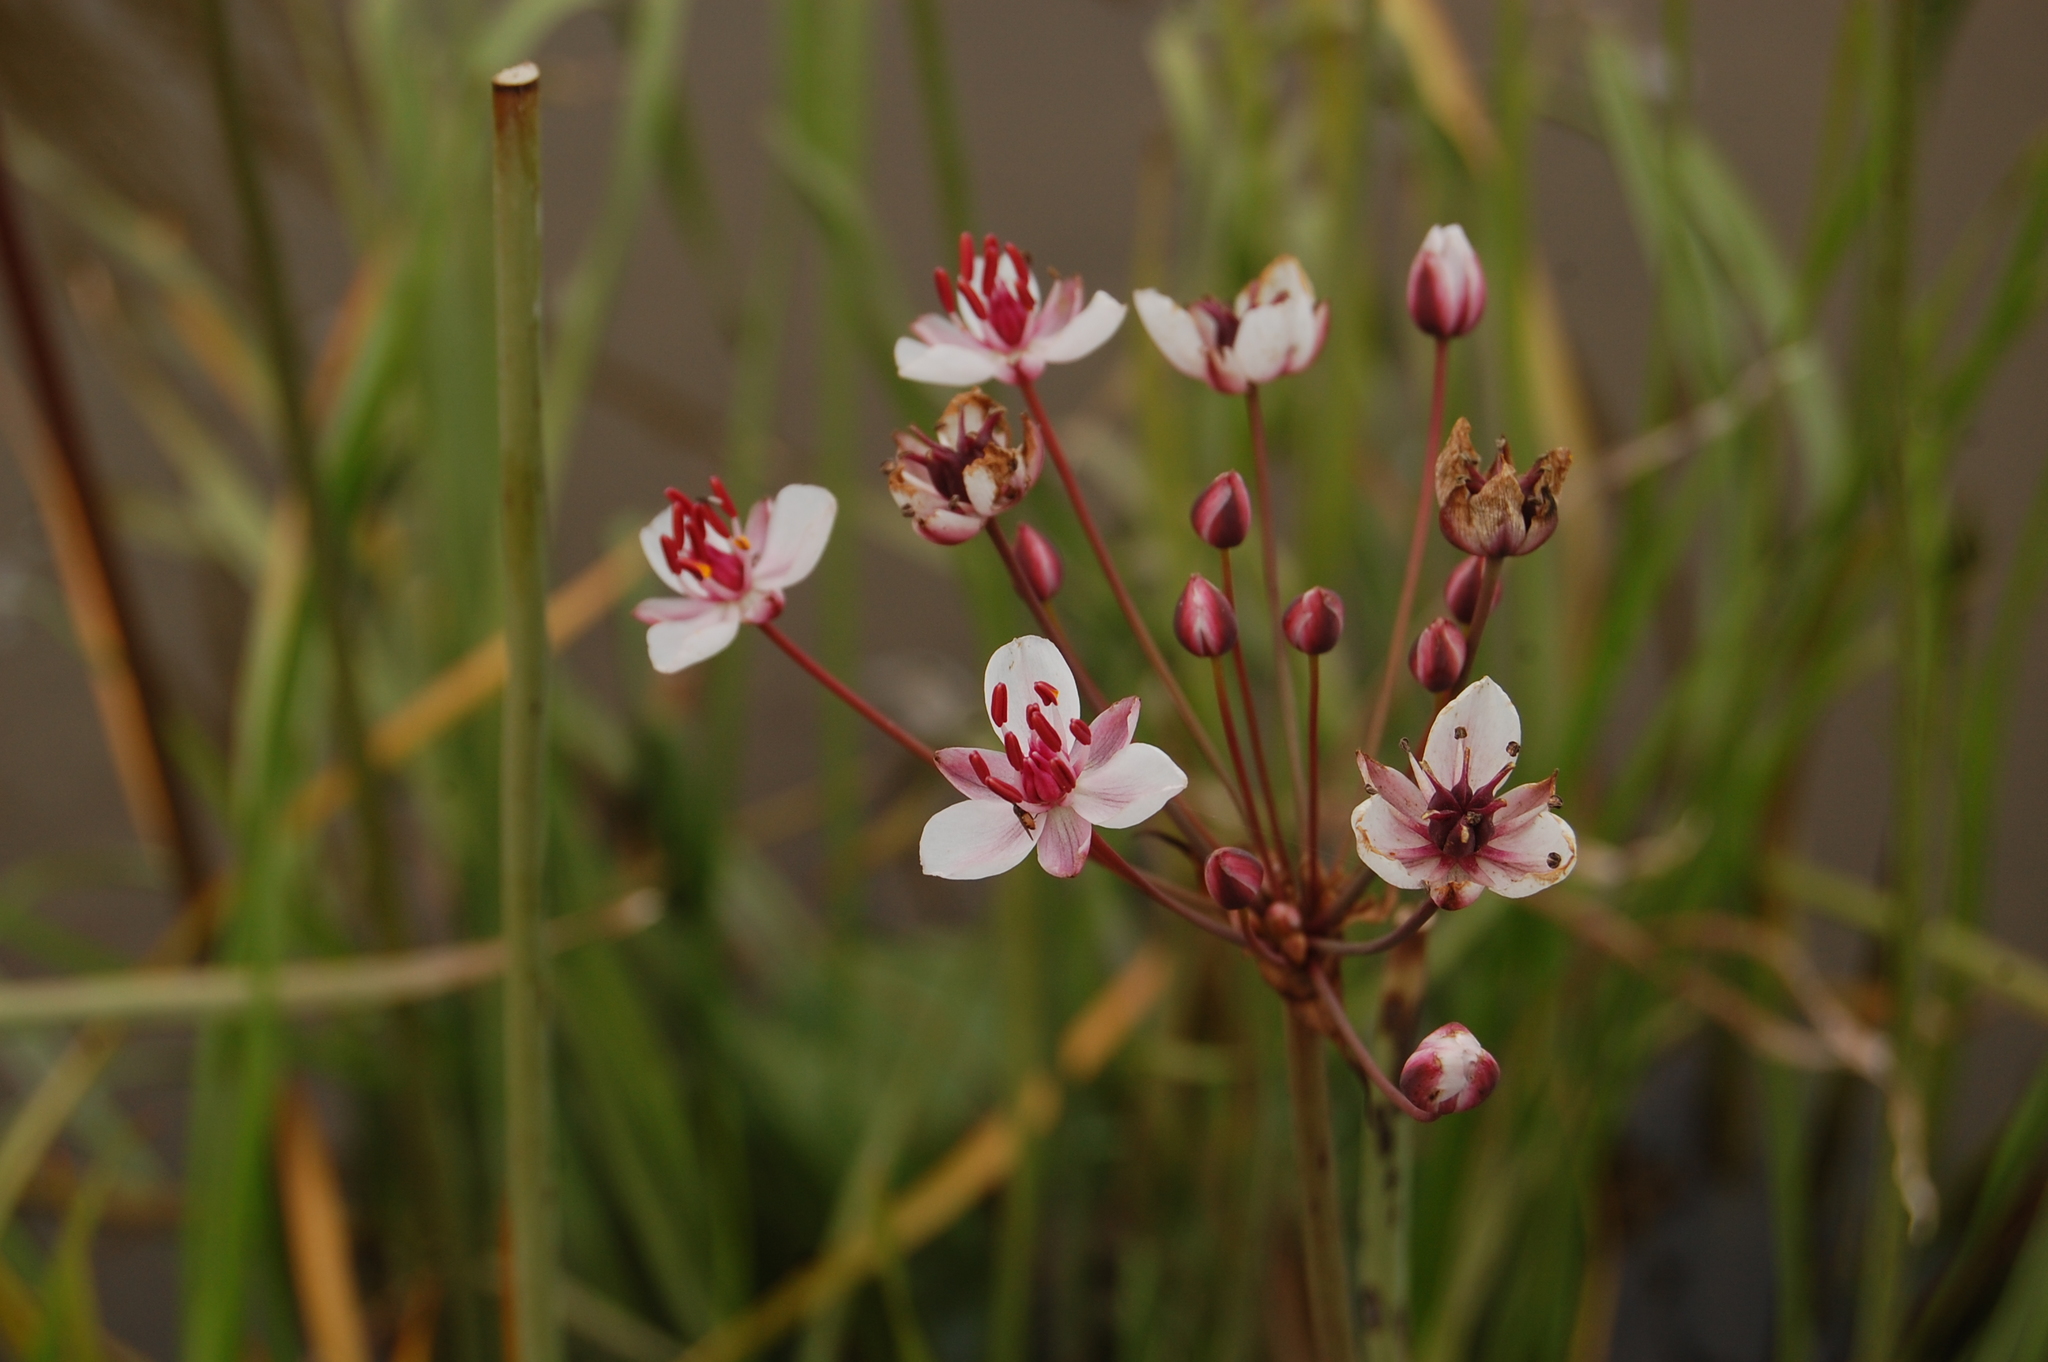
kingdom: Plantae
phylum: Tracheophyta
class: Liliopsida
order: Alismatales
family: Butomaceae
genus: Butomus
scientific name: Butomus umbellatus
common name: Flowering-rush
